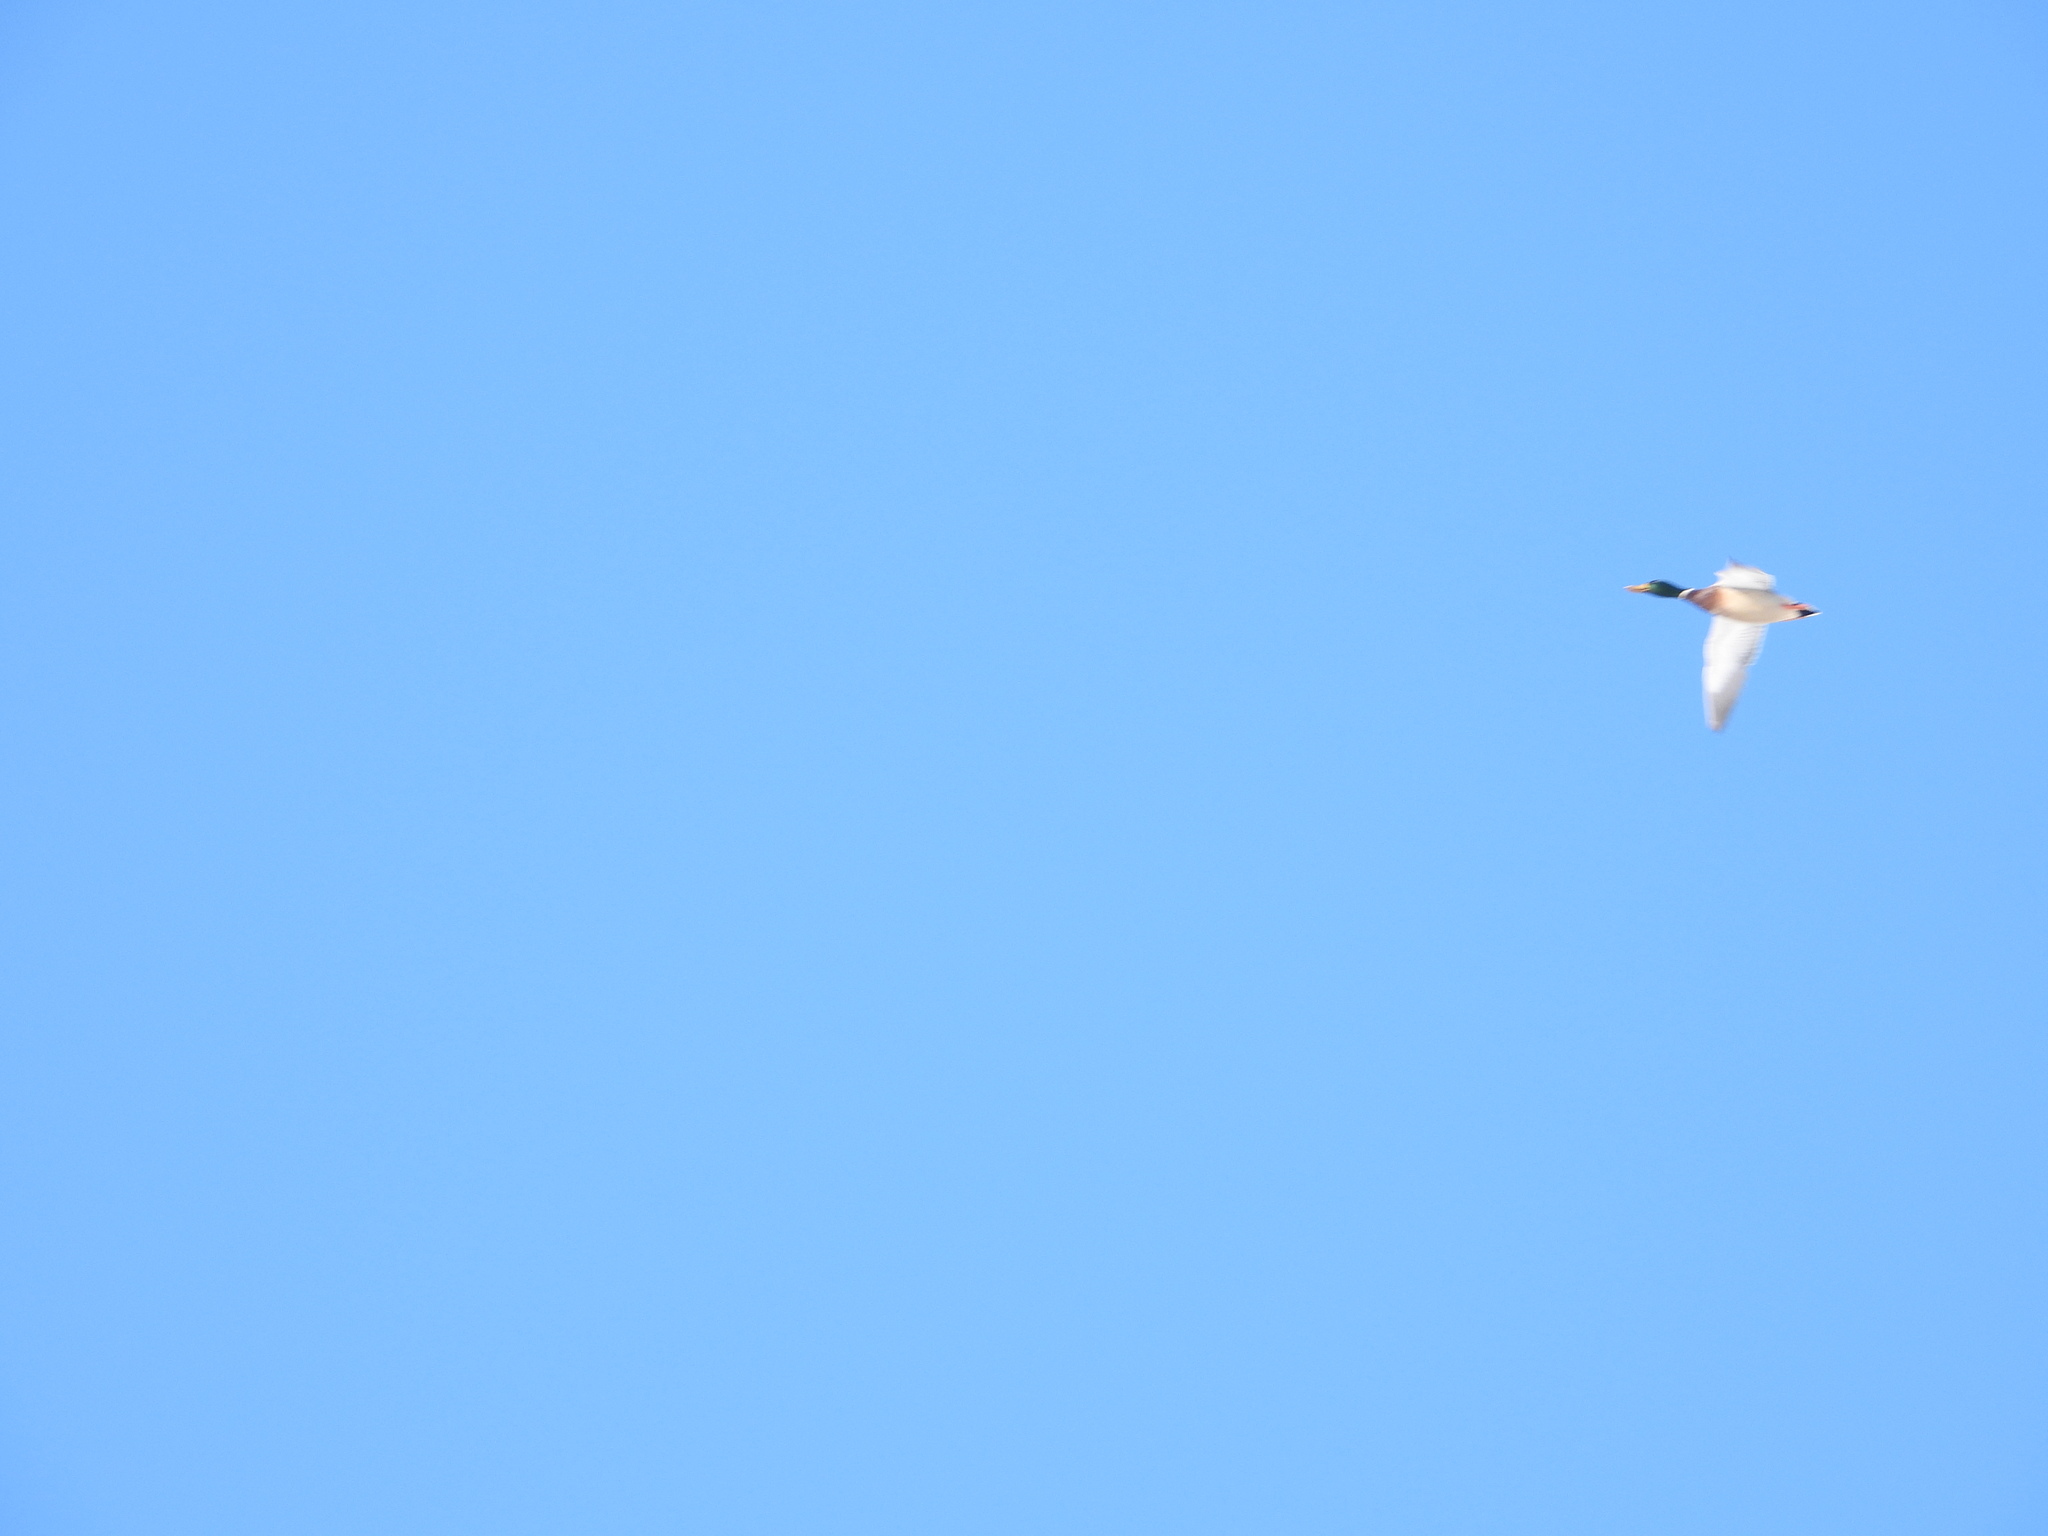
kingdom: Animalia
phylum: Chordata
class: Aves
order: Anseriformes
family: Anatidae
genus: Anas
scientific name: Anas platyrhynchos
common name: Mallard
